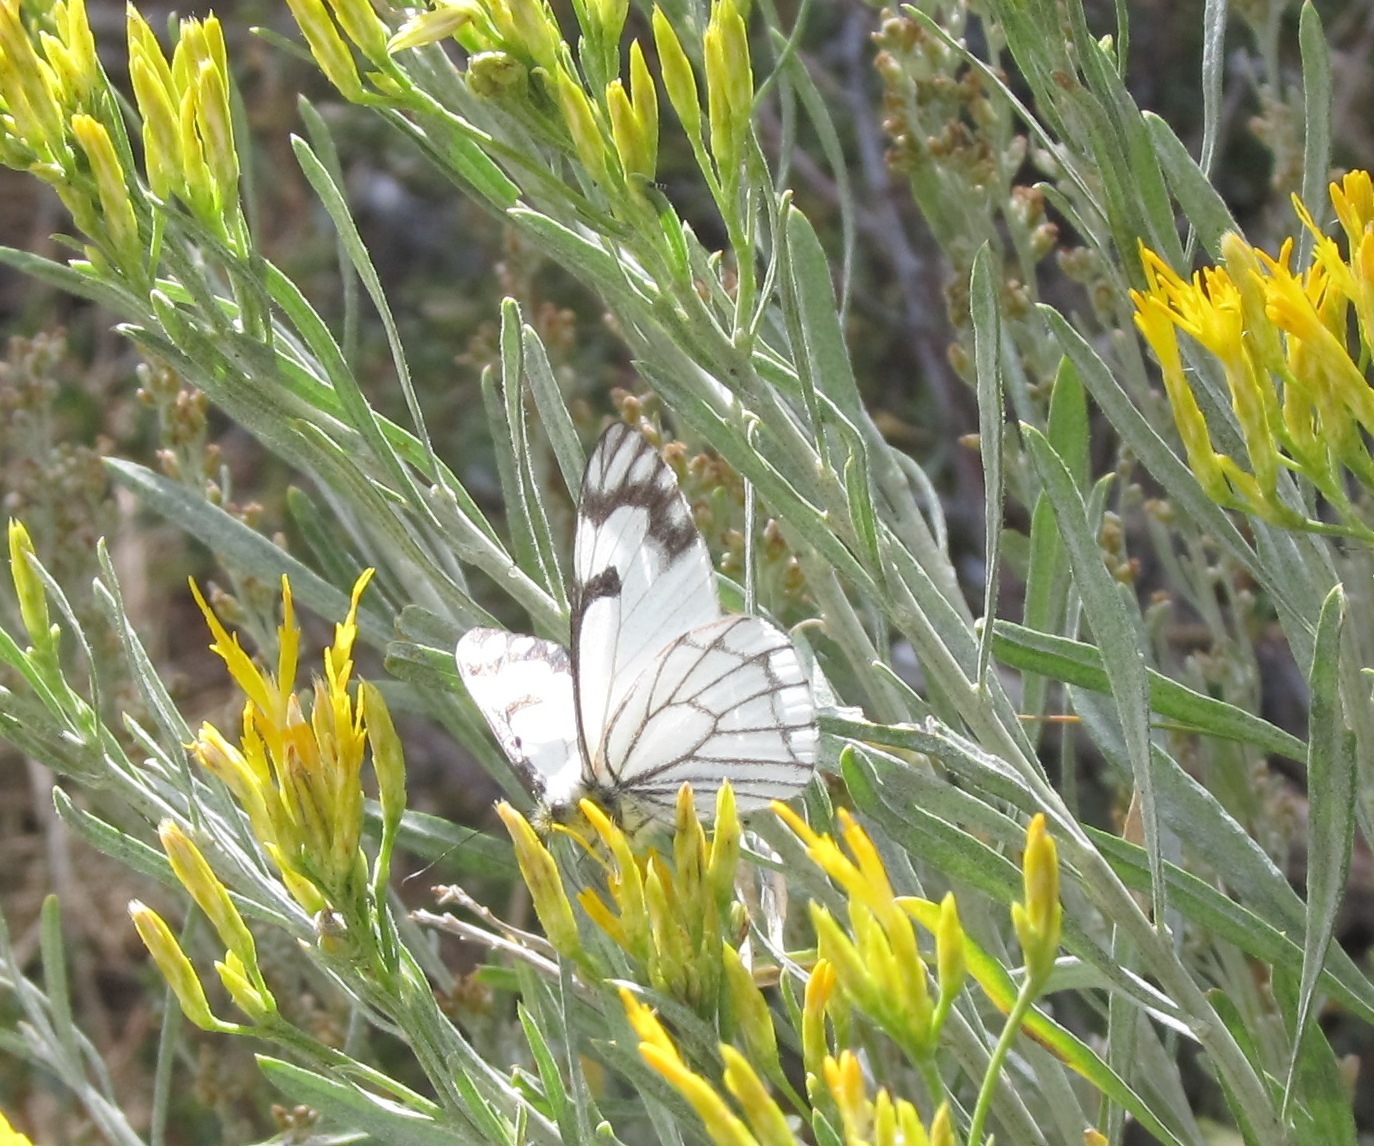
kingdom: Animalia
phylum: Arthropoda
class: Insecta
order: Lepidoptera
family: Pieridae
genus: Neophasia
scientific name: Neophasia menapia
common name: Pine white
